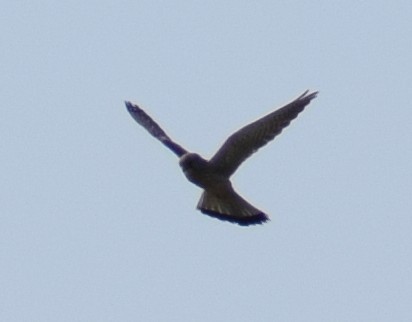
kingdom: Animalia
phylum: Chordata
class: Aves
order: Falconiformes
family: Falconidae
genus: Falco
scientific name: Falco tinnunculus
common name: Common kestrel
